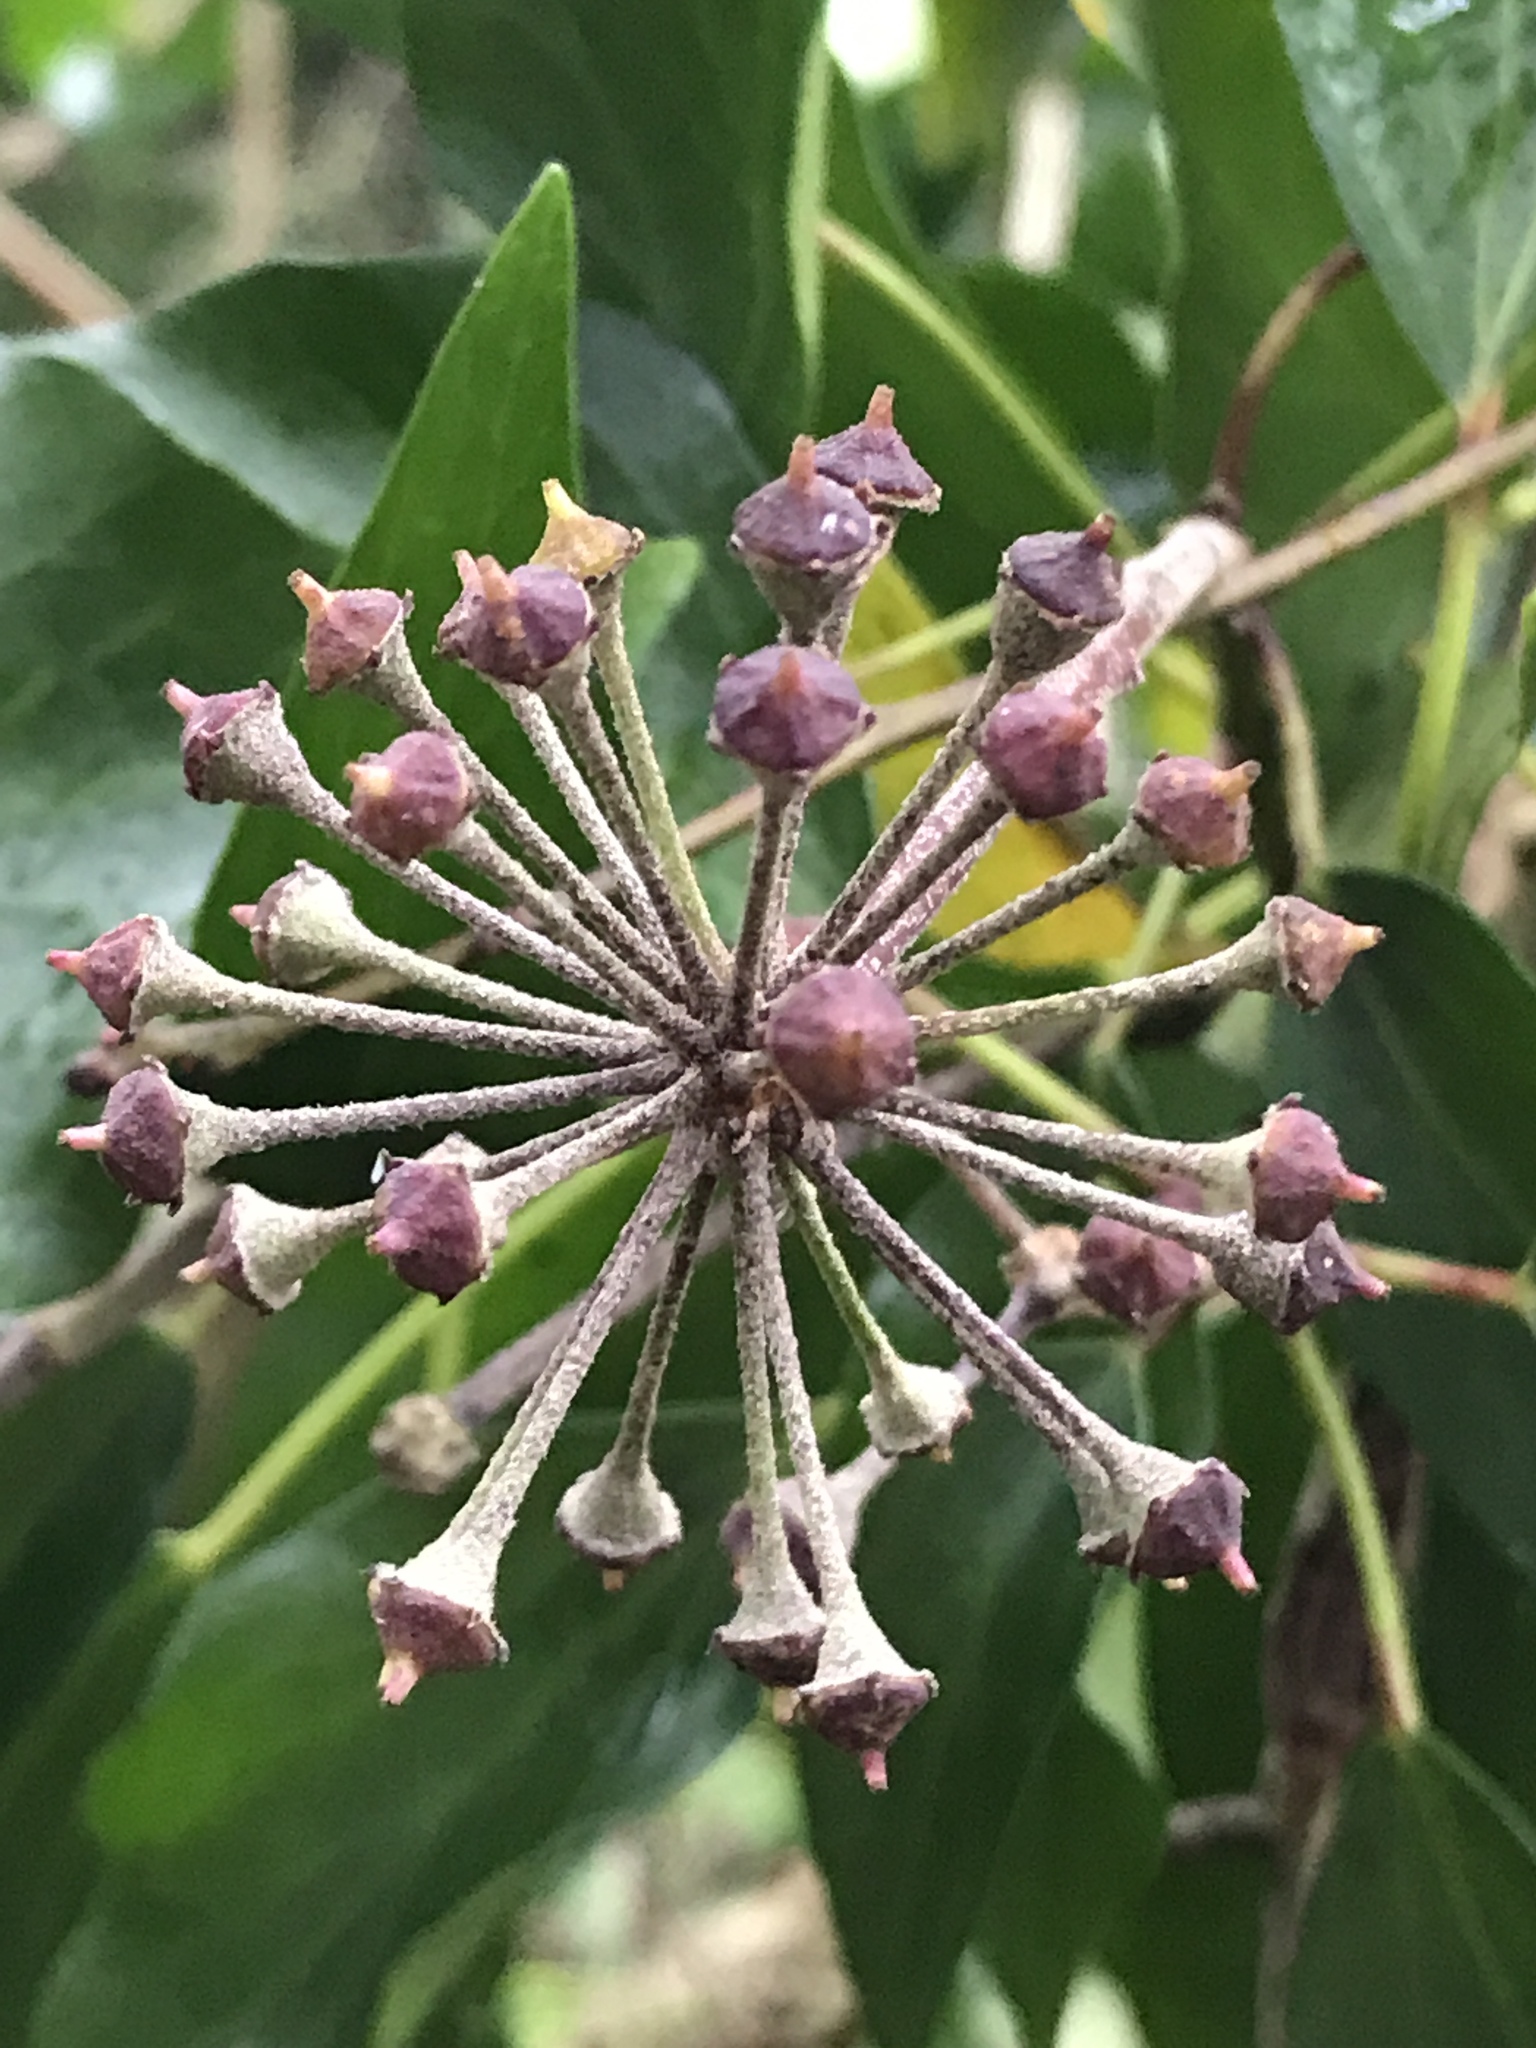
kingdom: Plantae
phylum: Tracheophyta
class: Magnoliopsida
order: Apiales
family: Araliaceae
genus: Hedera
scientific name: Hedera helix
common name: Ivy
